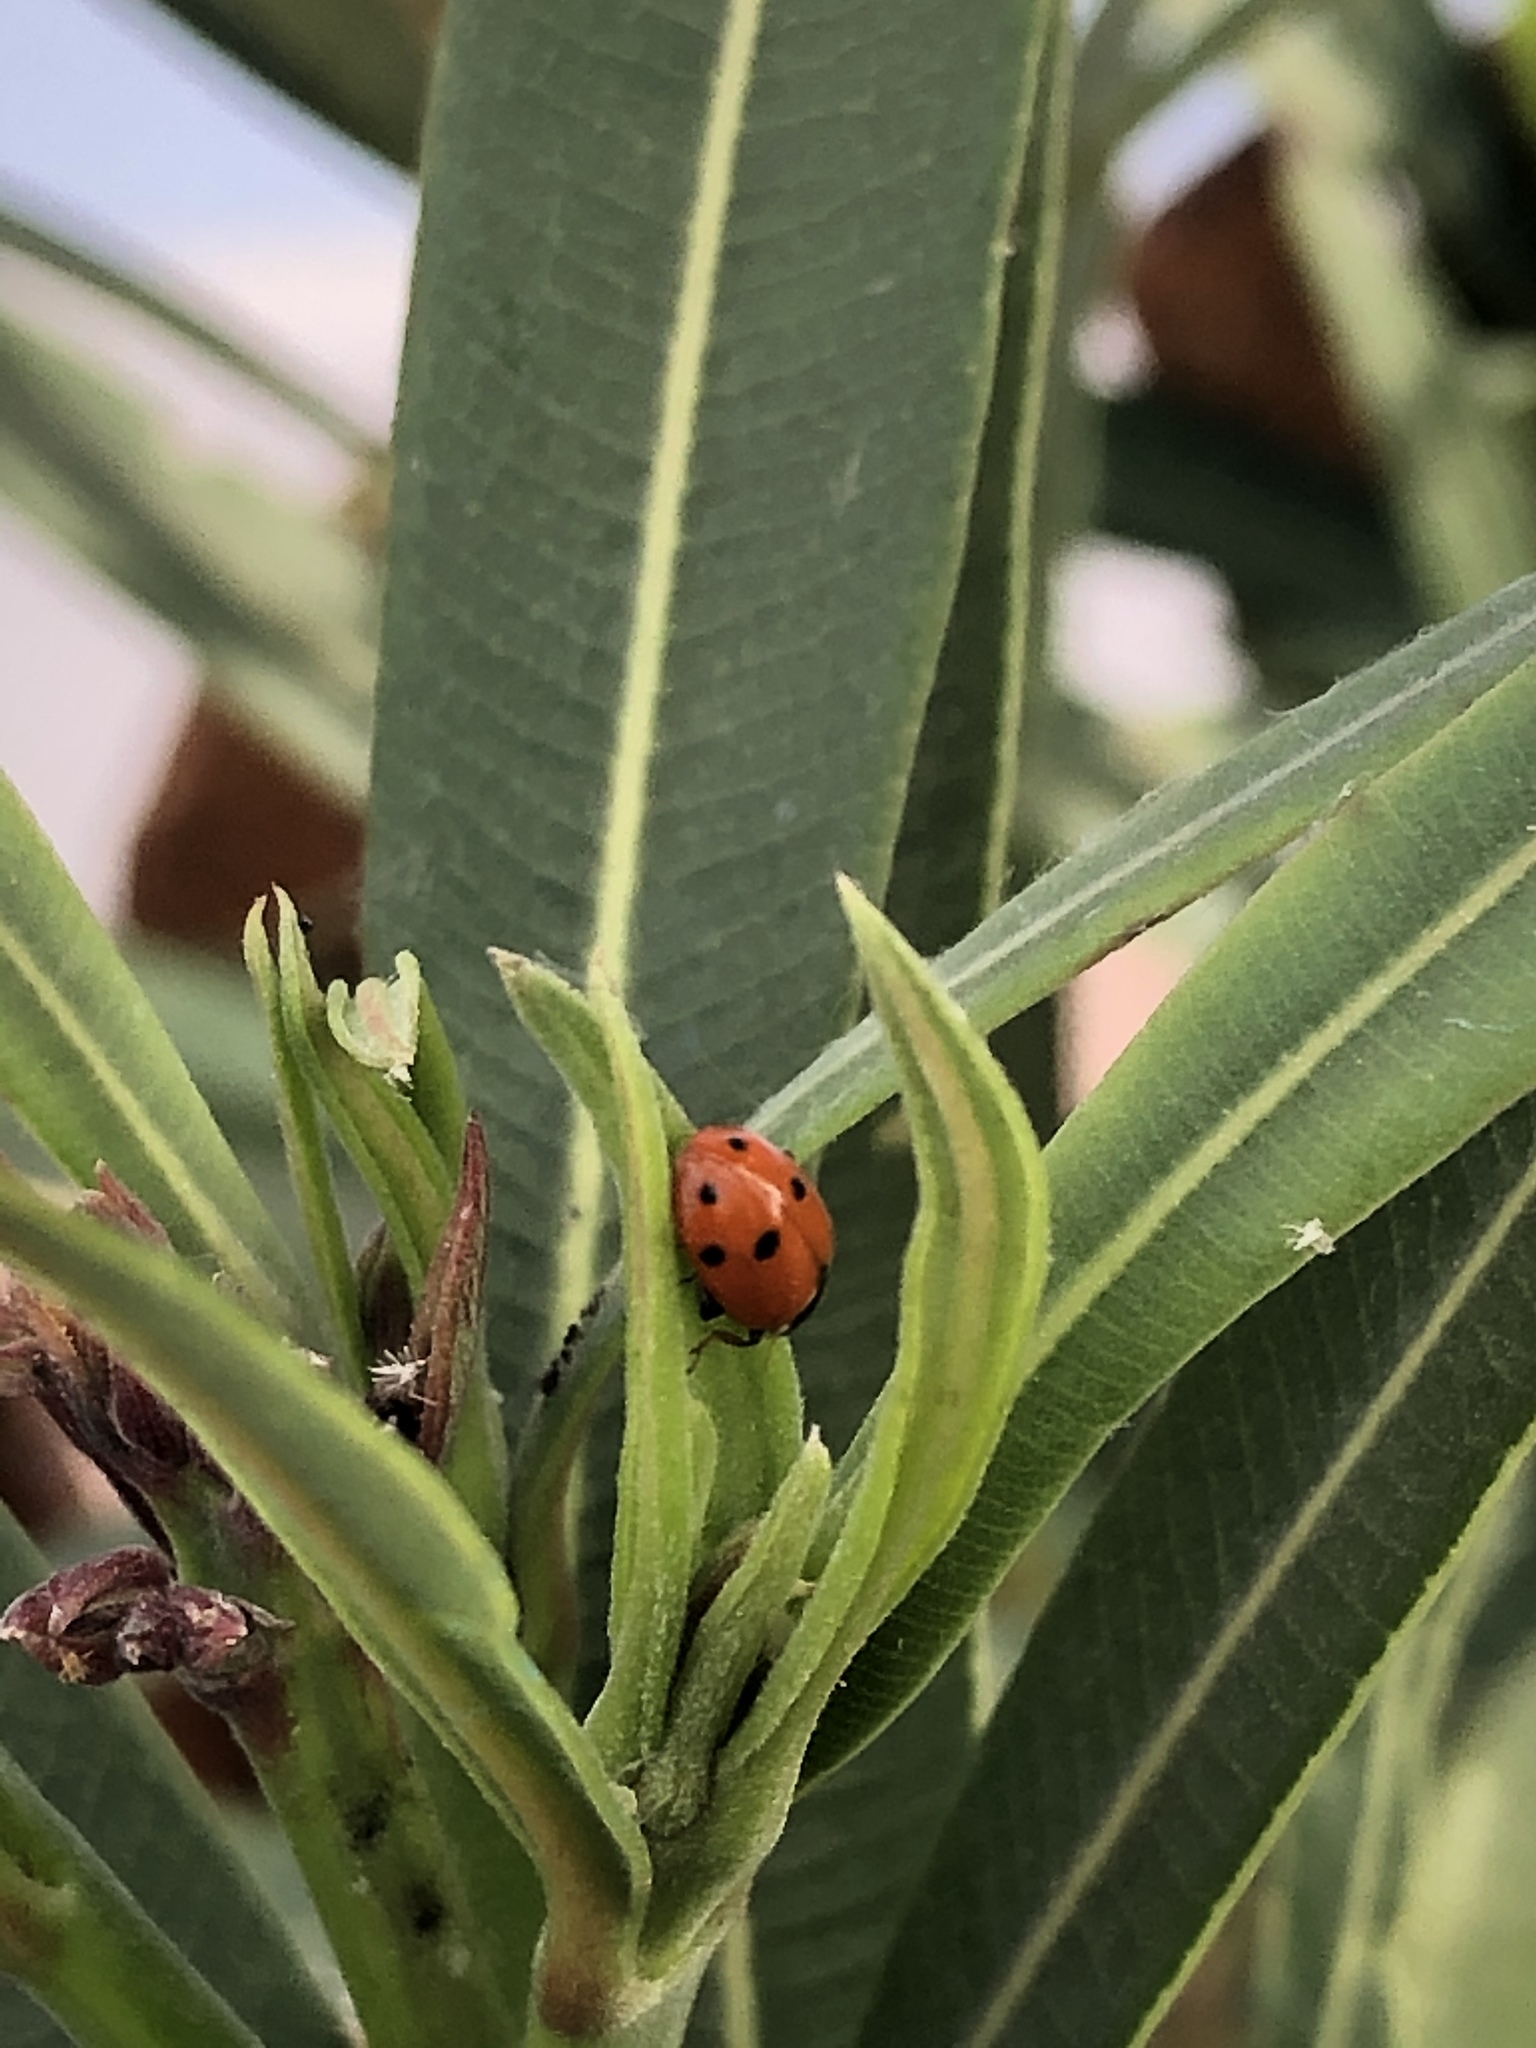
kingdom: Animalia
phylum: Arthropoda
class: Insecta
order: Coleoptera
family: Coccinellidae
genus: Hippodamia
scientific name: Hippodamia variegata
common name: Ladybird beetle
